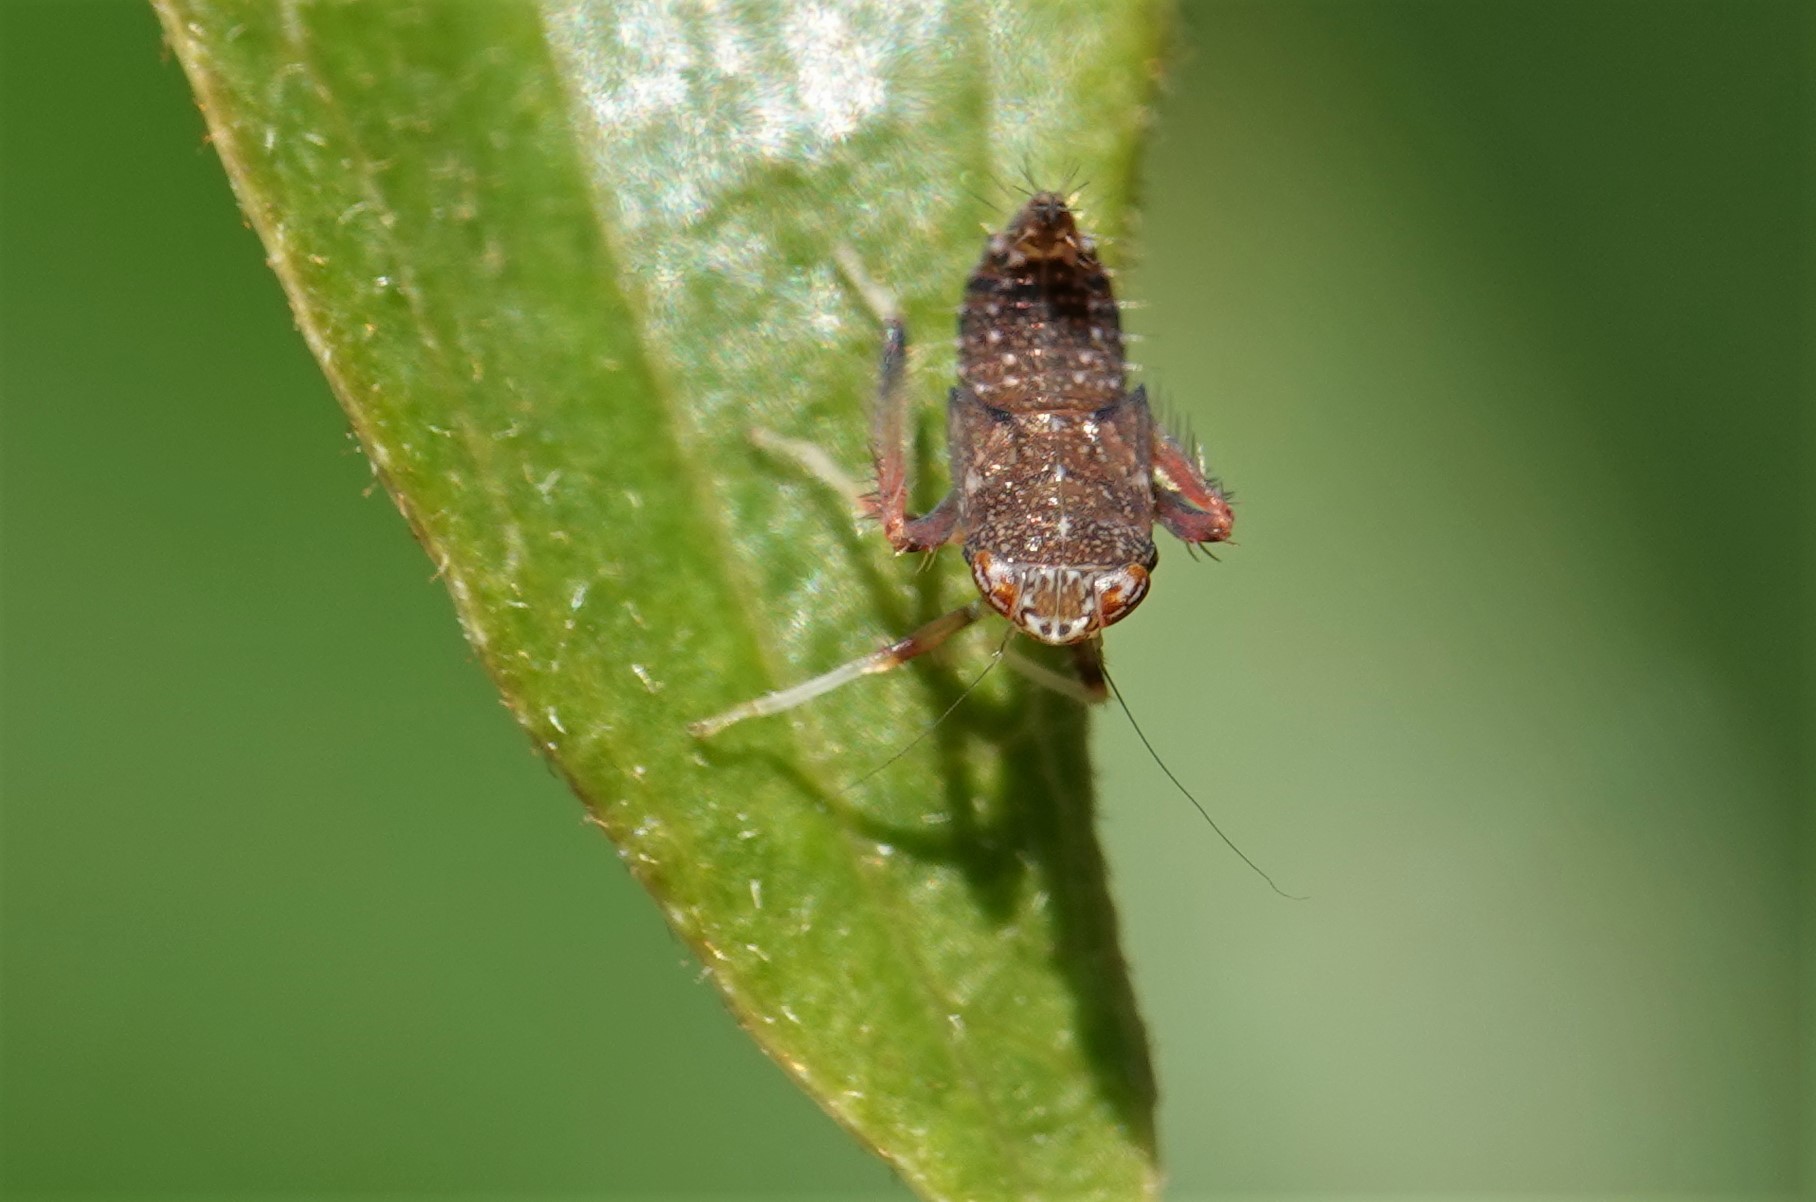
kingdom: Animalia
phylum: Arthropoda
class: Insecta
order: Hemiptera
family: Cicadellidae
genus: Orientus
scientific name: Orientus ishidae
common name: Japanese leafhopper
